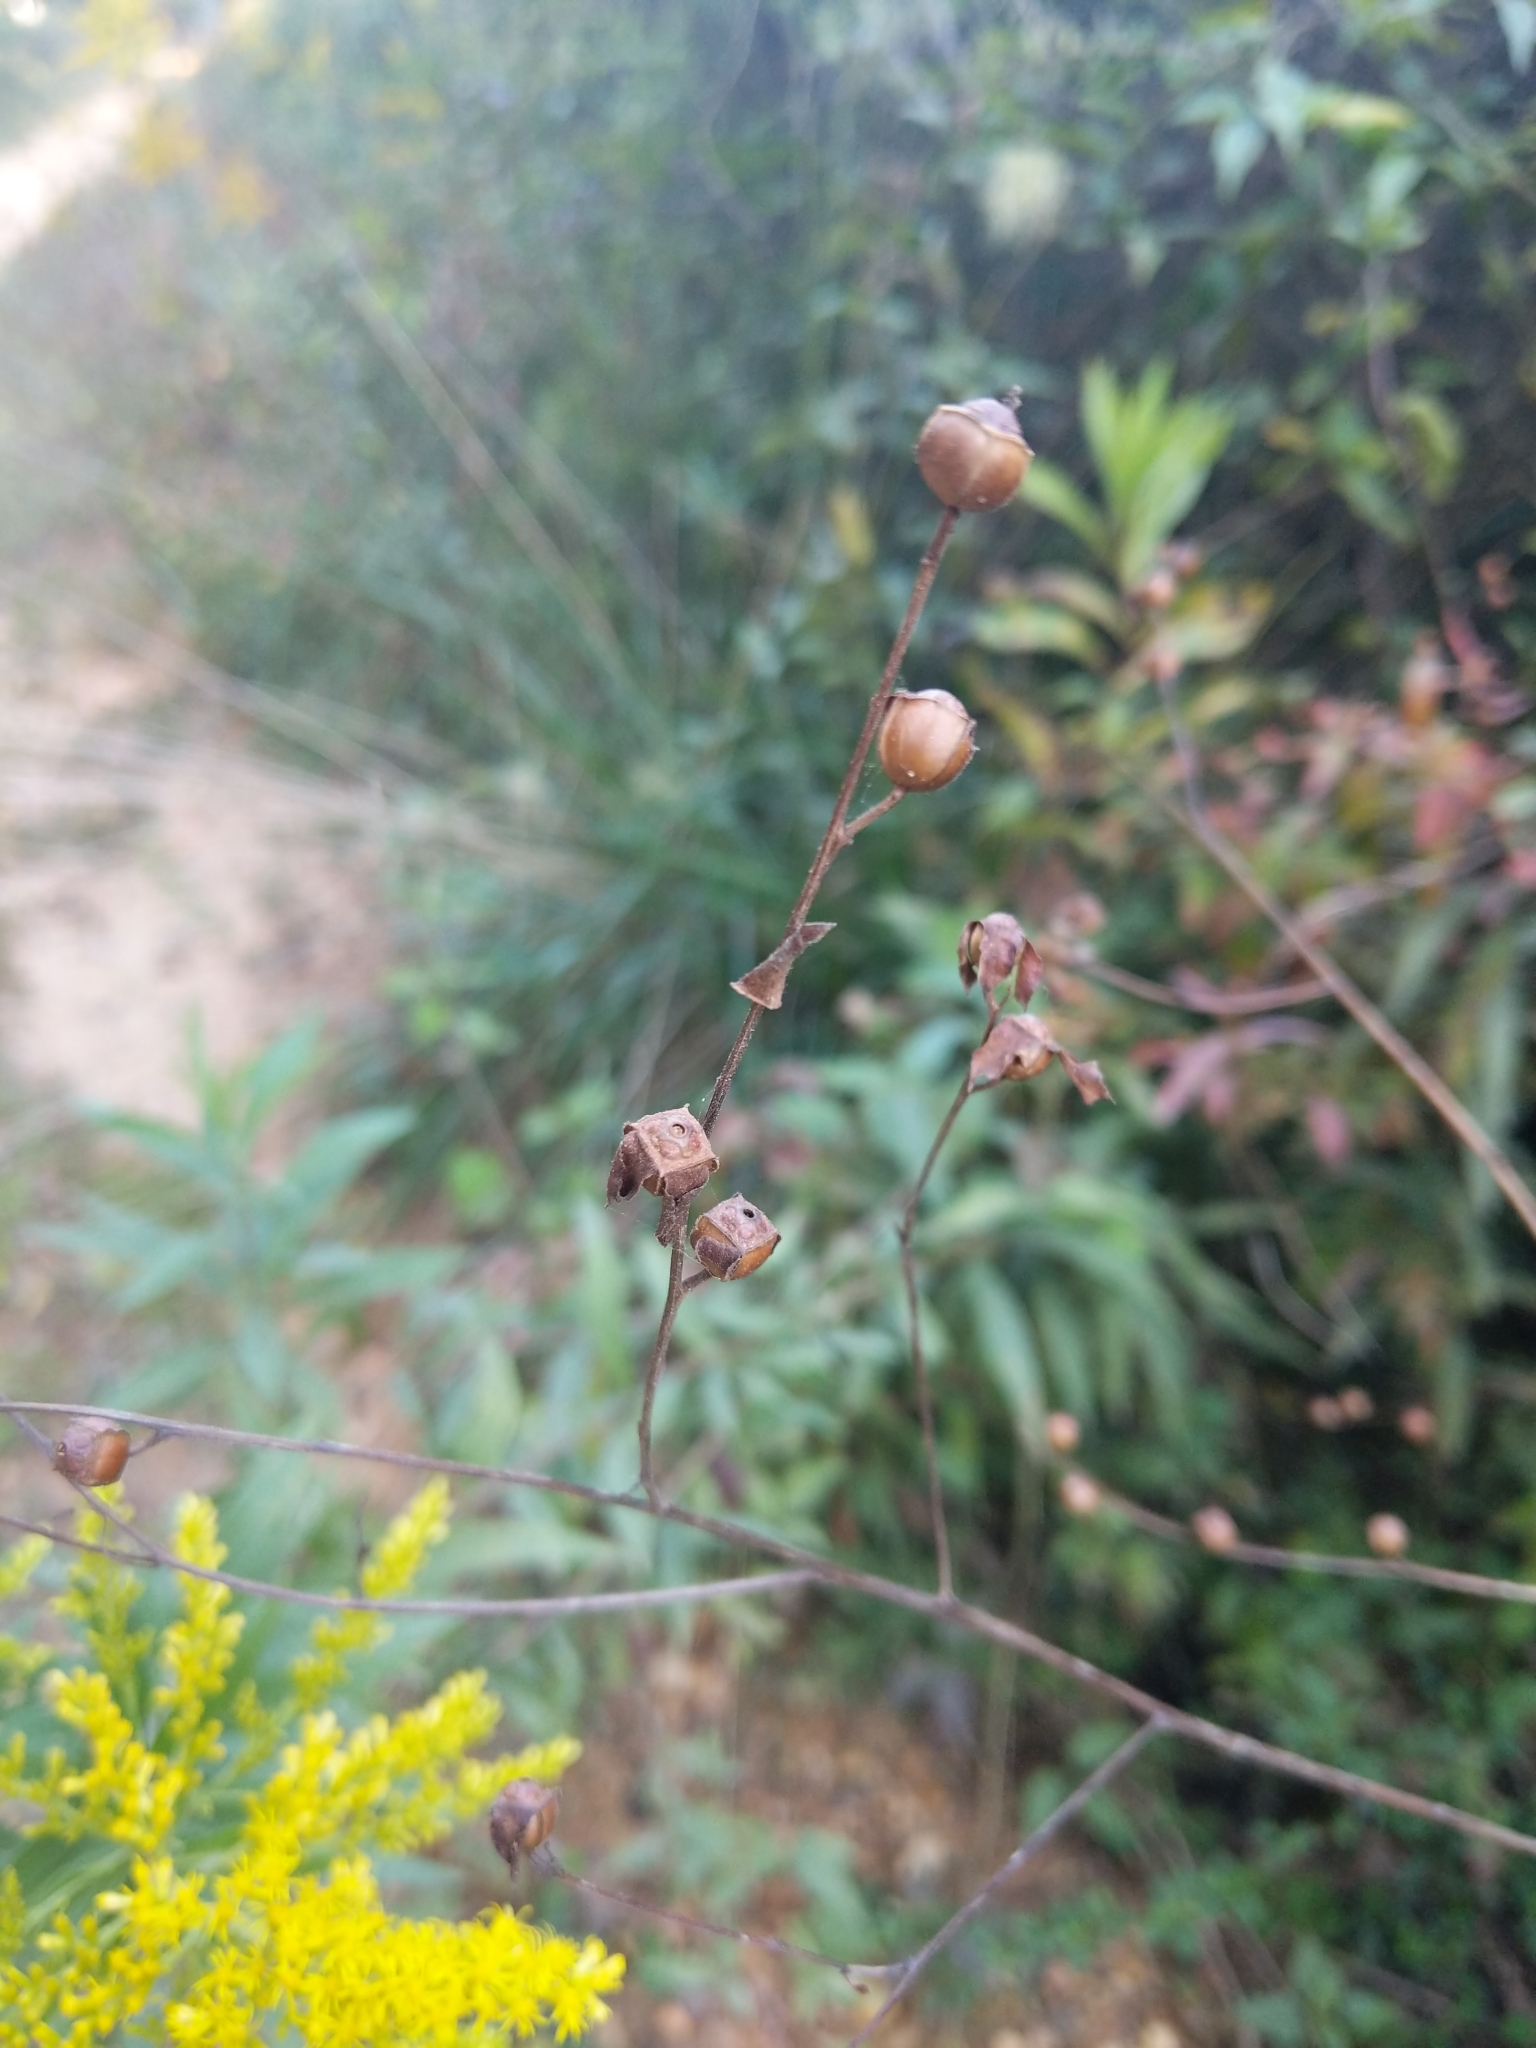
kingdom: Plantae
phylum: Tracheophyta
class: Magnoliopsida
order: Myrtales
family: Onagraceae
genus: Ludwigia
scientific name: Ludwigia alternifolia
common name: Rattlebox
